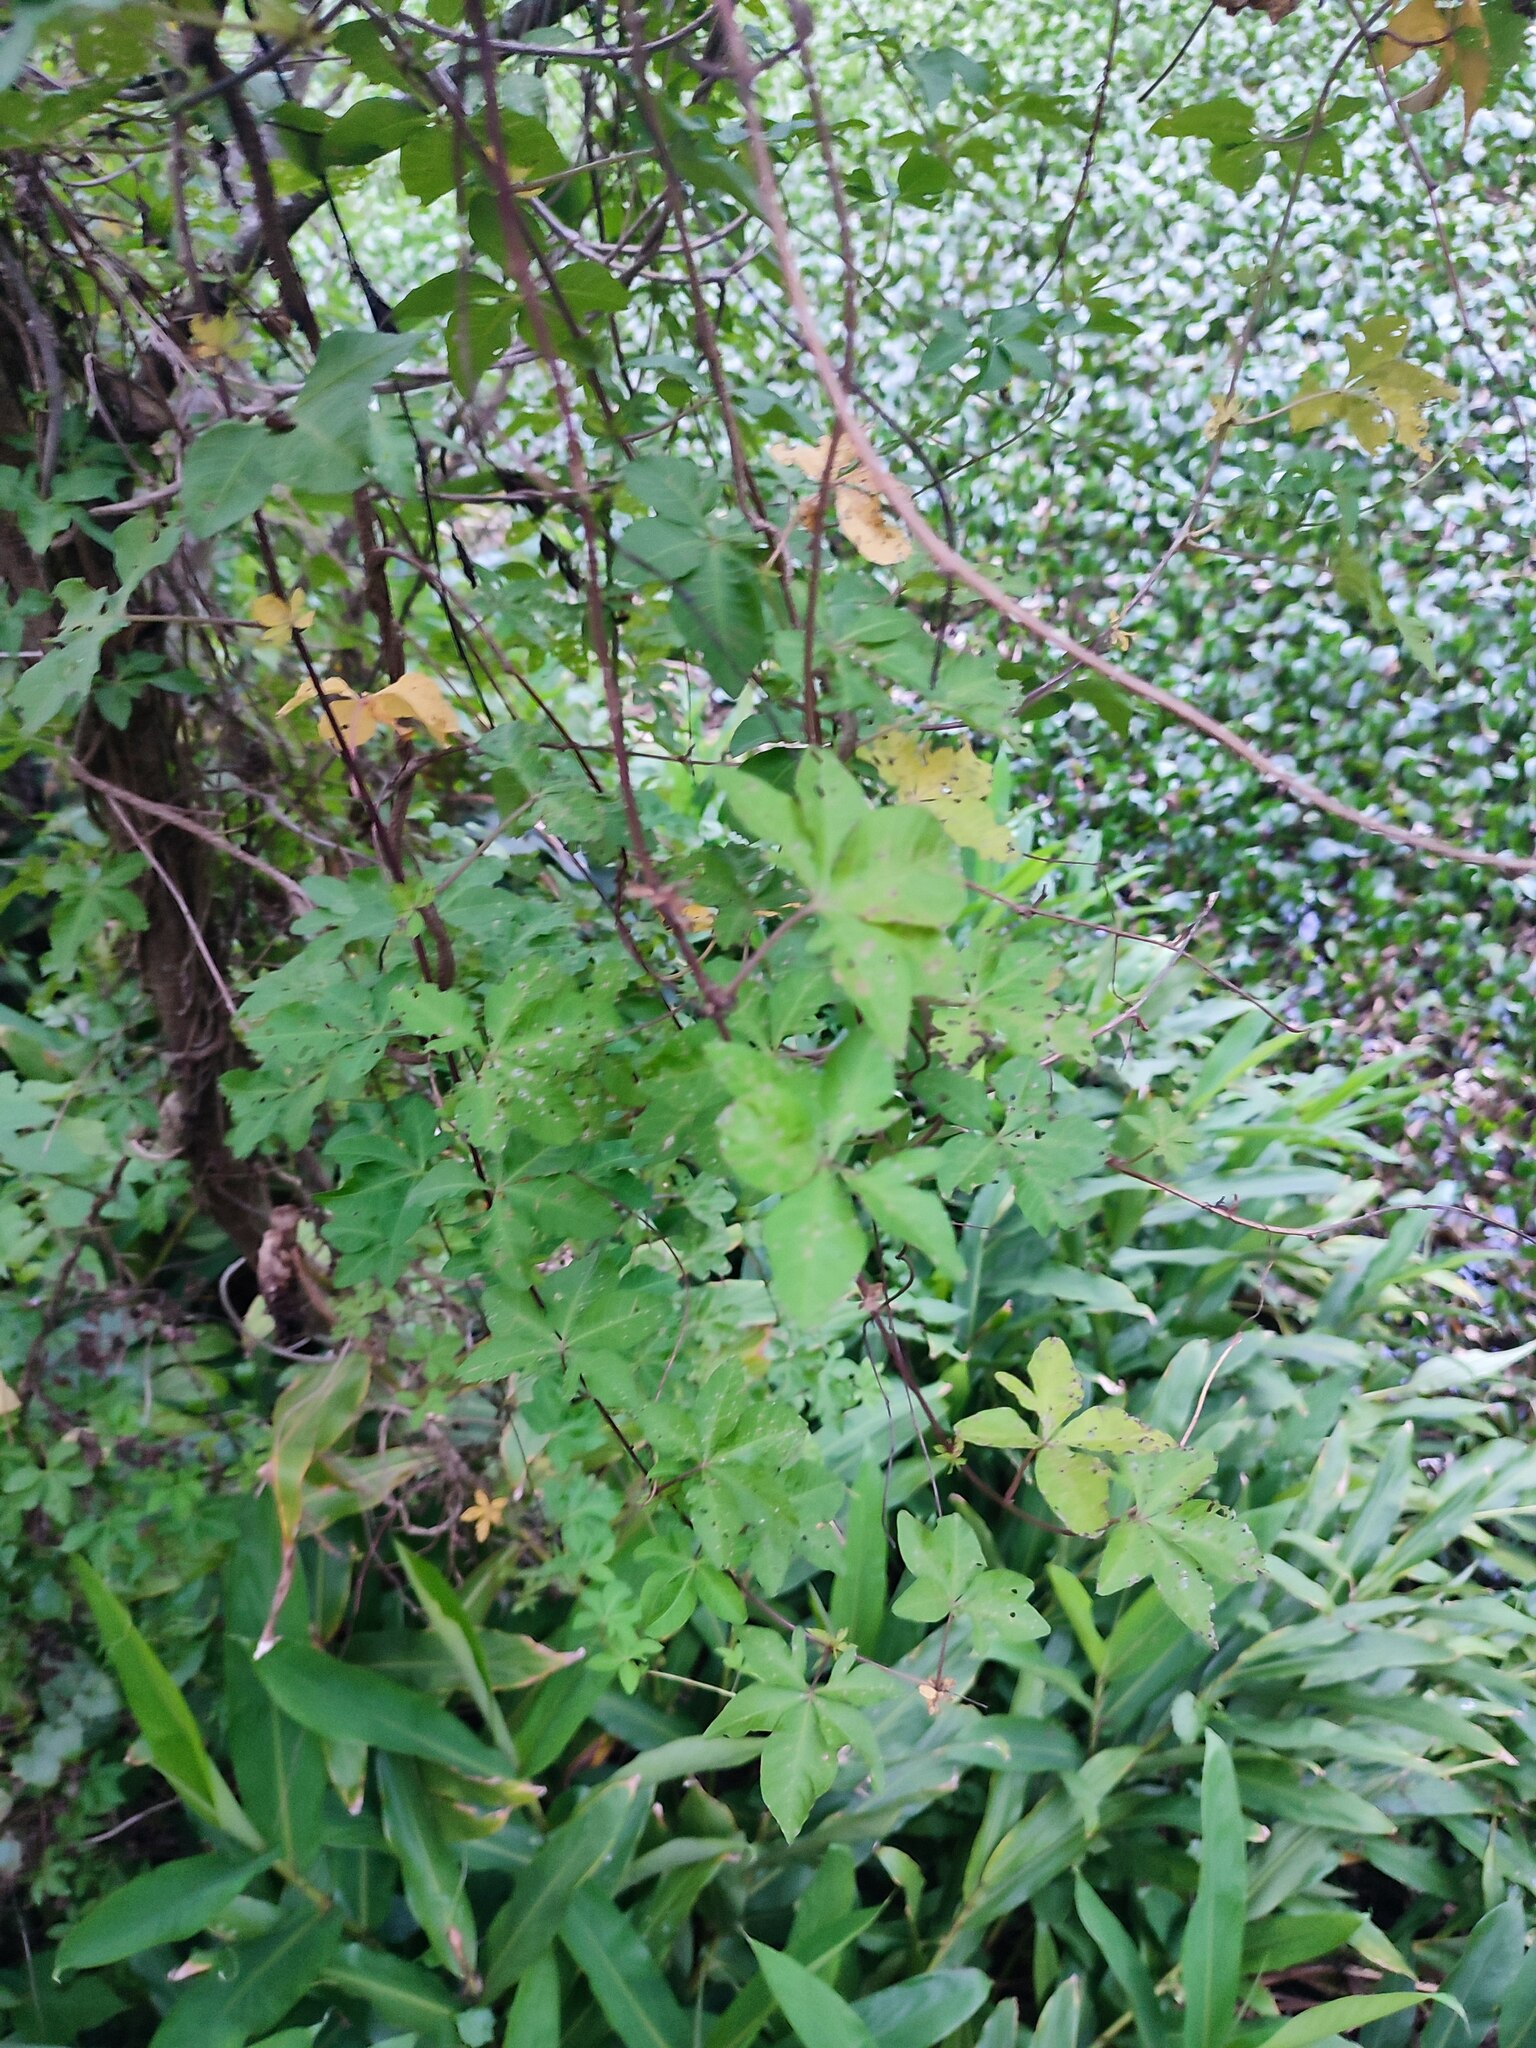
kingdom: Plantae
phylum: Tracheophyta
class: Magnoliopsida
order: Solanales
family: Convolvulaceae
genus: Ipomoea
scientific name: Ipomoea cairica
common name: Mile a minute vine
